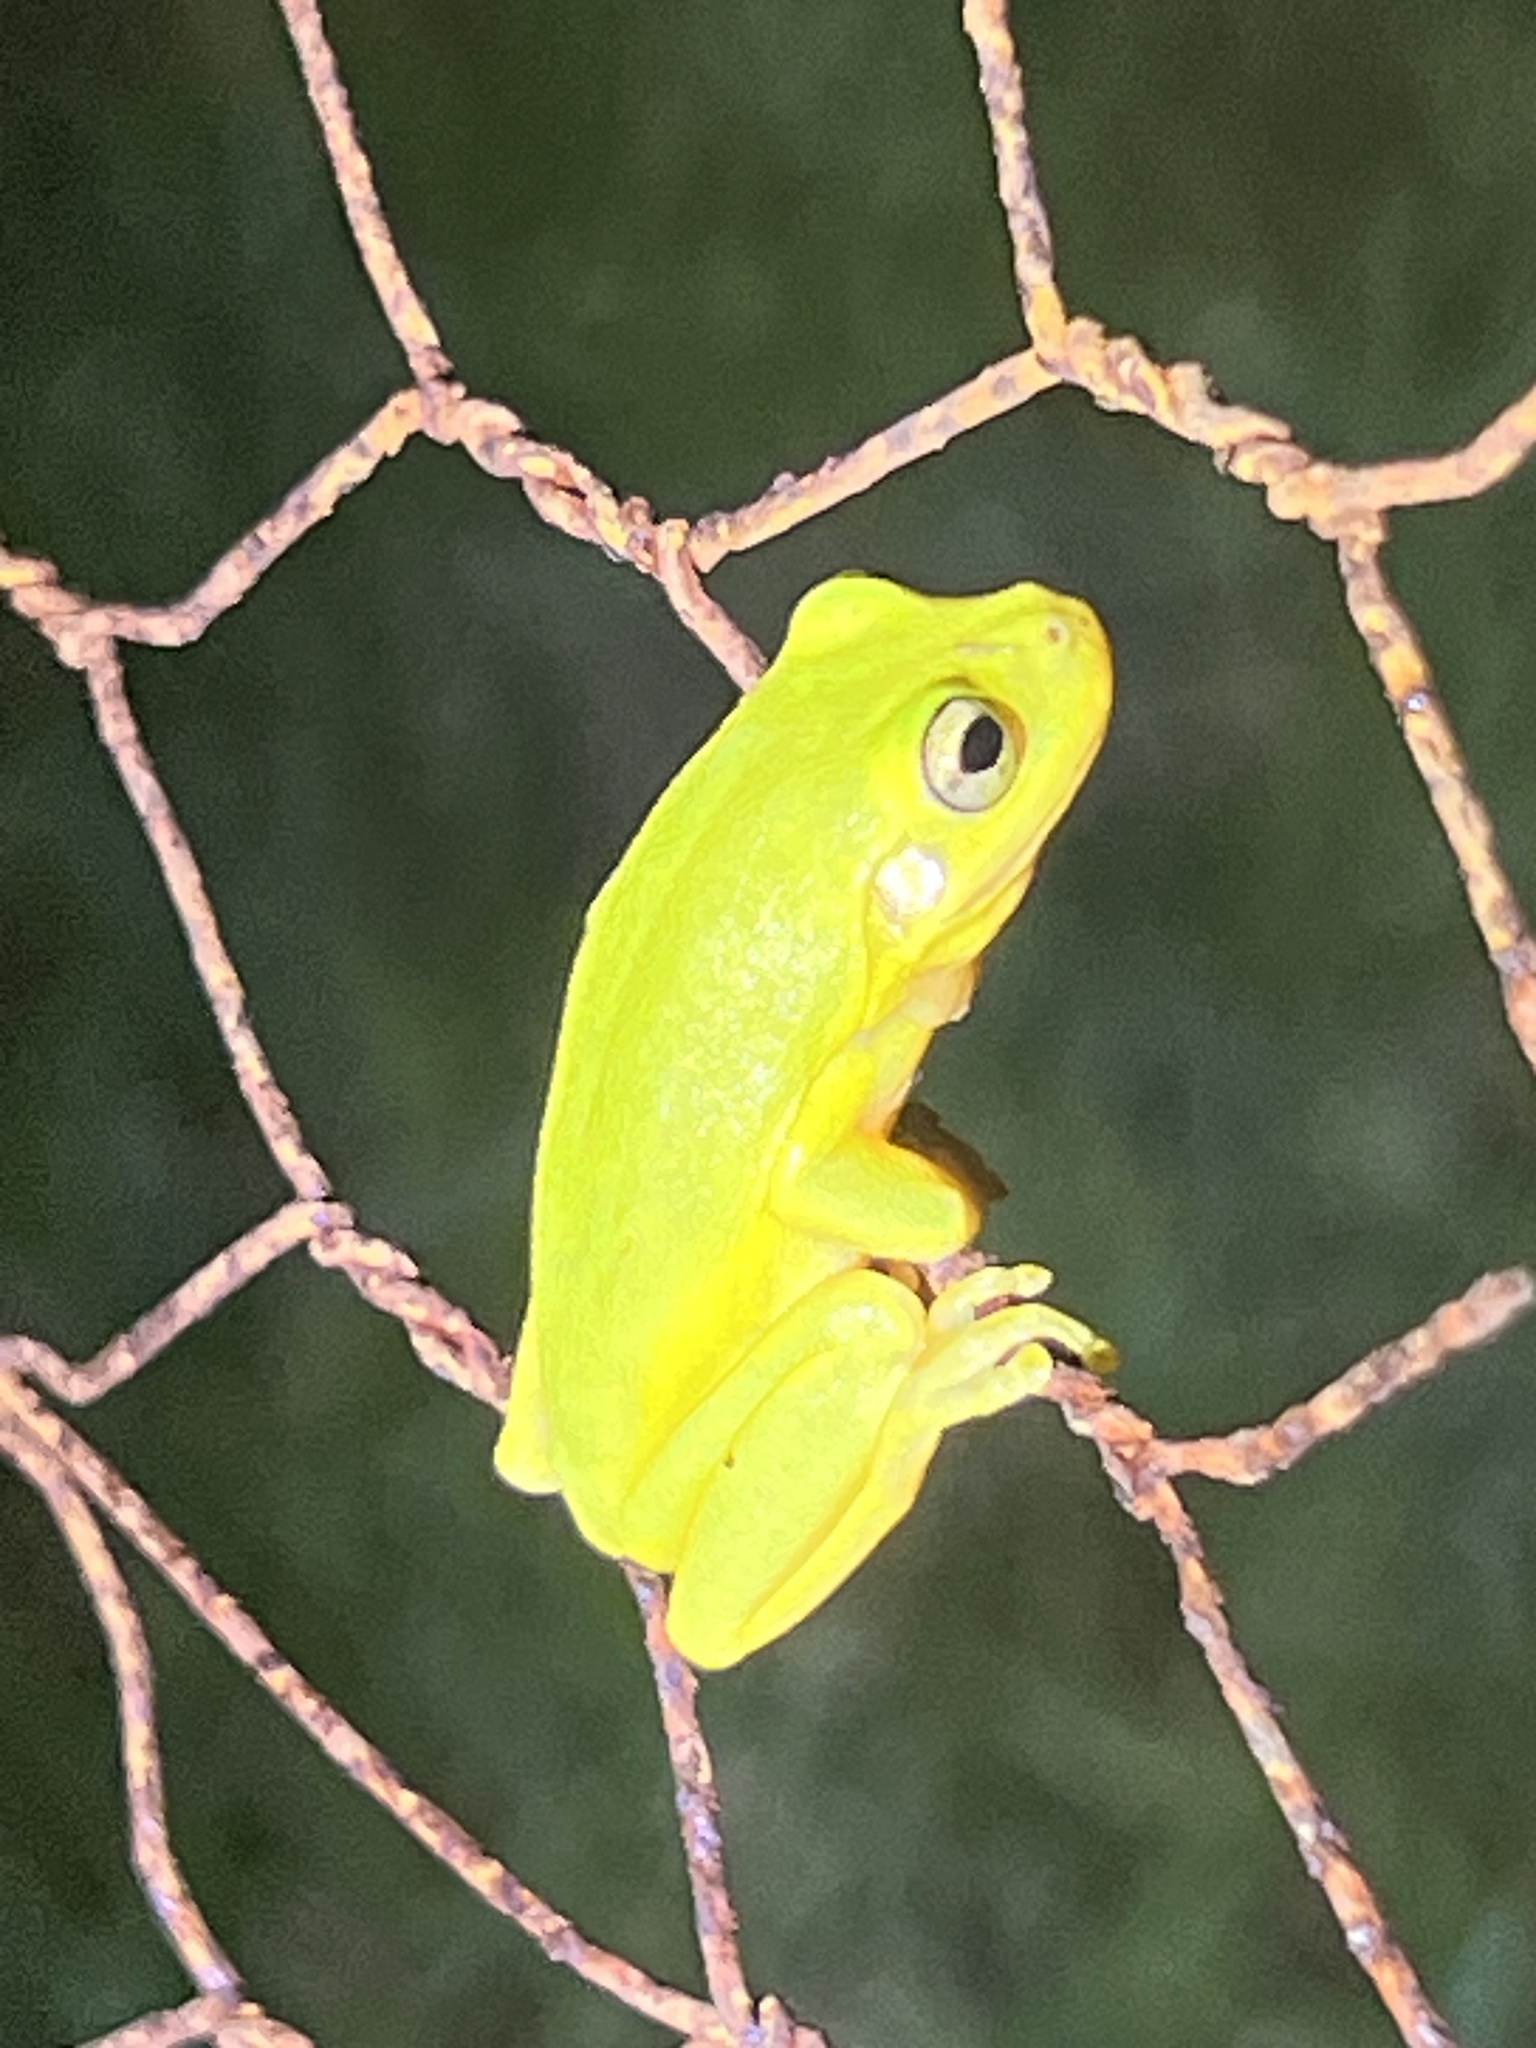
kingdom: Animalia
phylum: Chordata
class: Amphibia
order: Anura
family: Hylidae
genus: Dryophytes
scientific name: Dryophytes squirellus
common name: Squirrel treefrog
